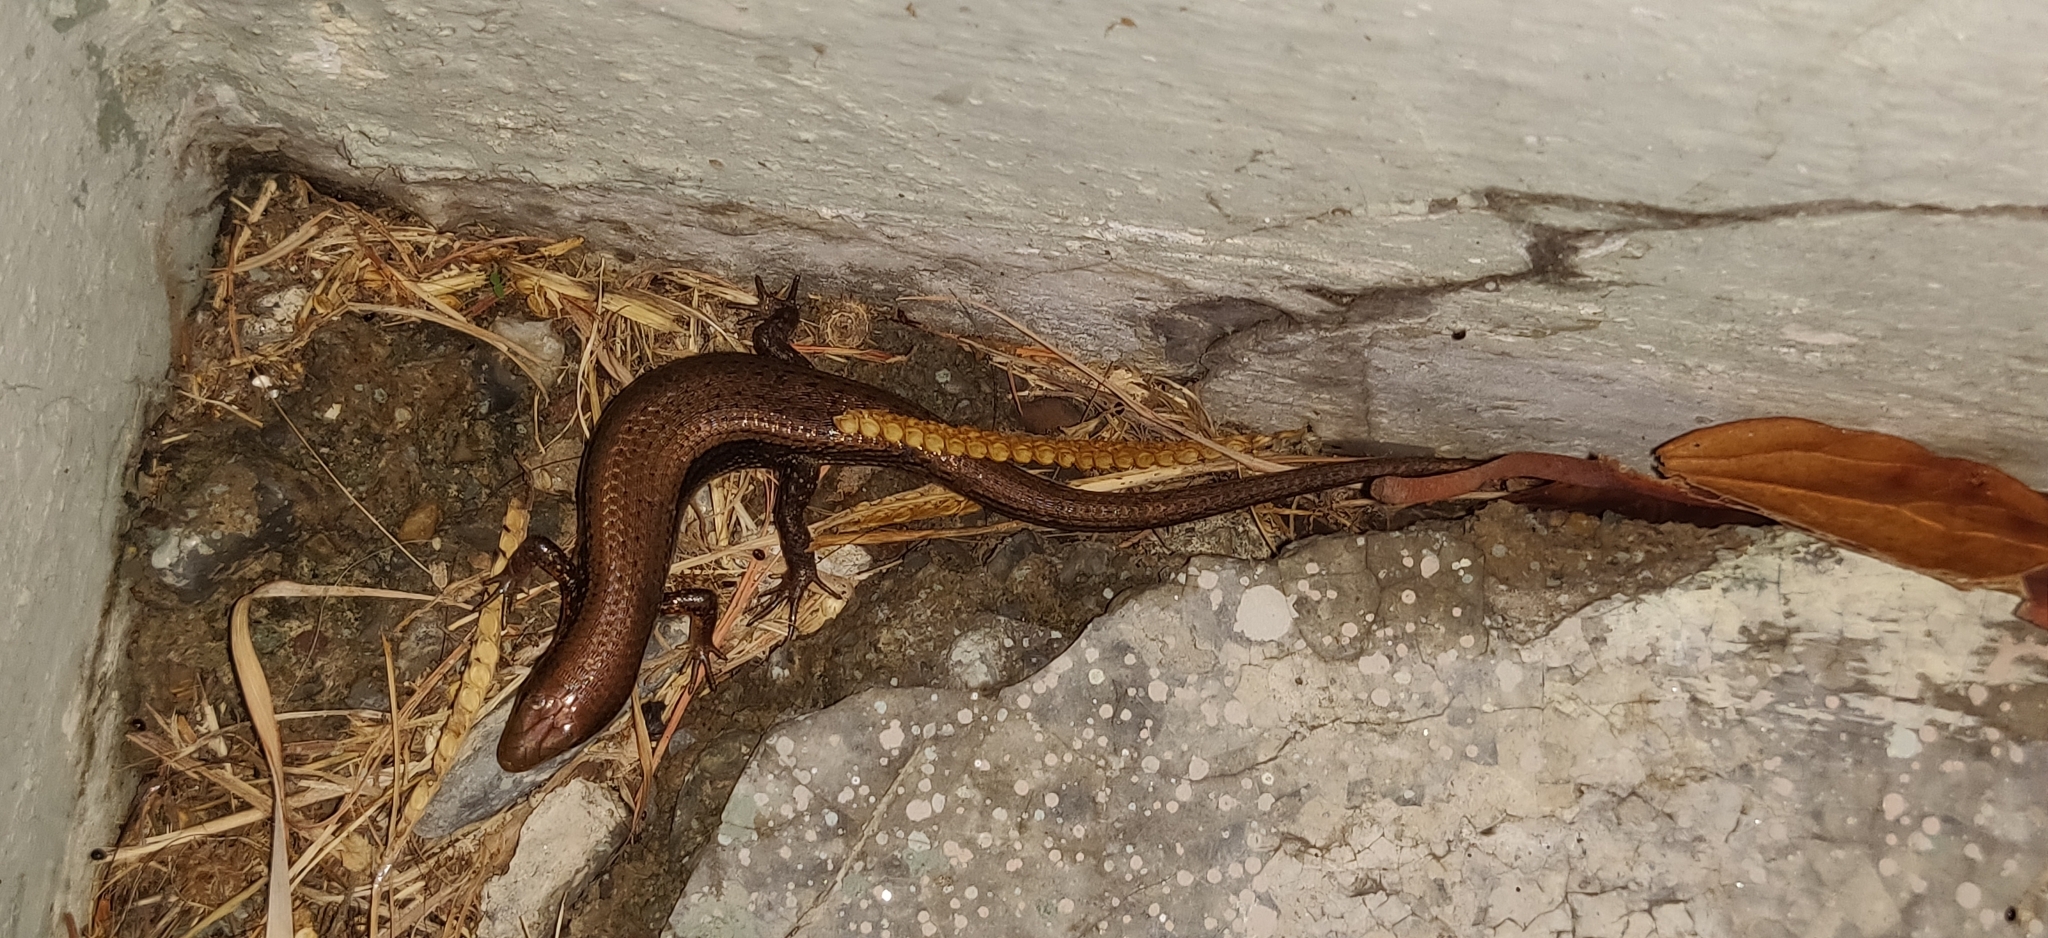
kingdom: Animalia
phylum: Chordata
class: Squamata
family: Scincidae
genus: Eutropis
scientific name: Eutropis macularia
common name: Bronze mabuya
